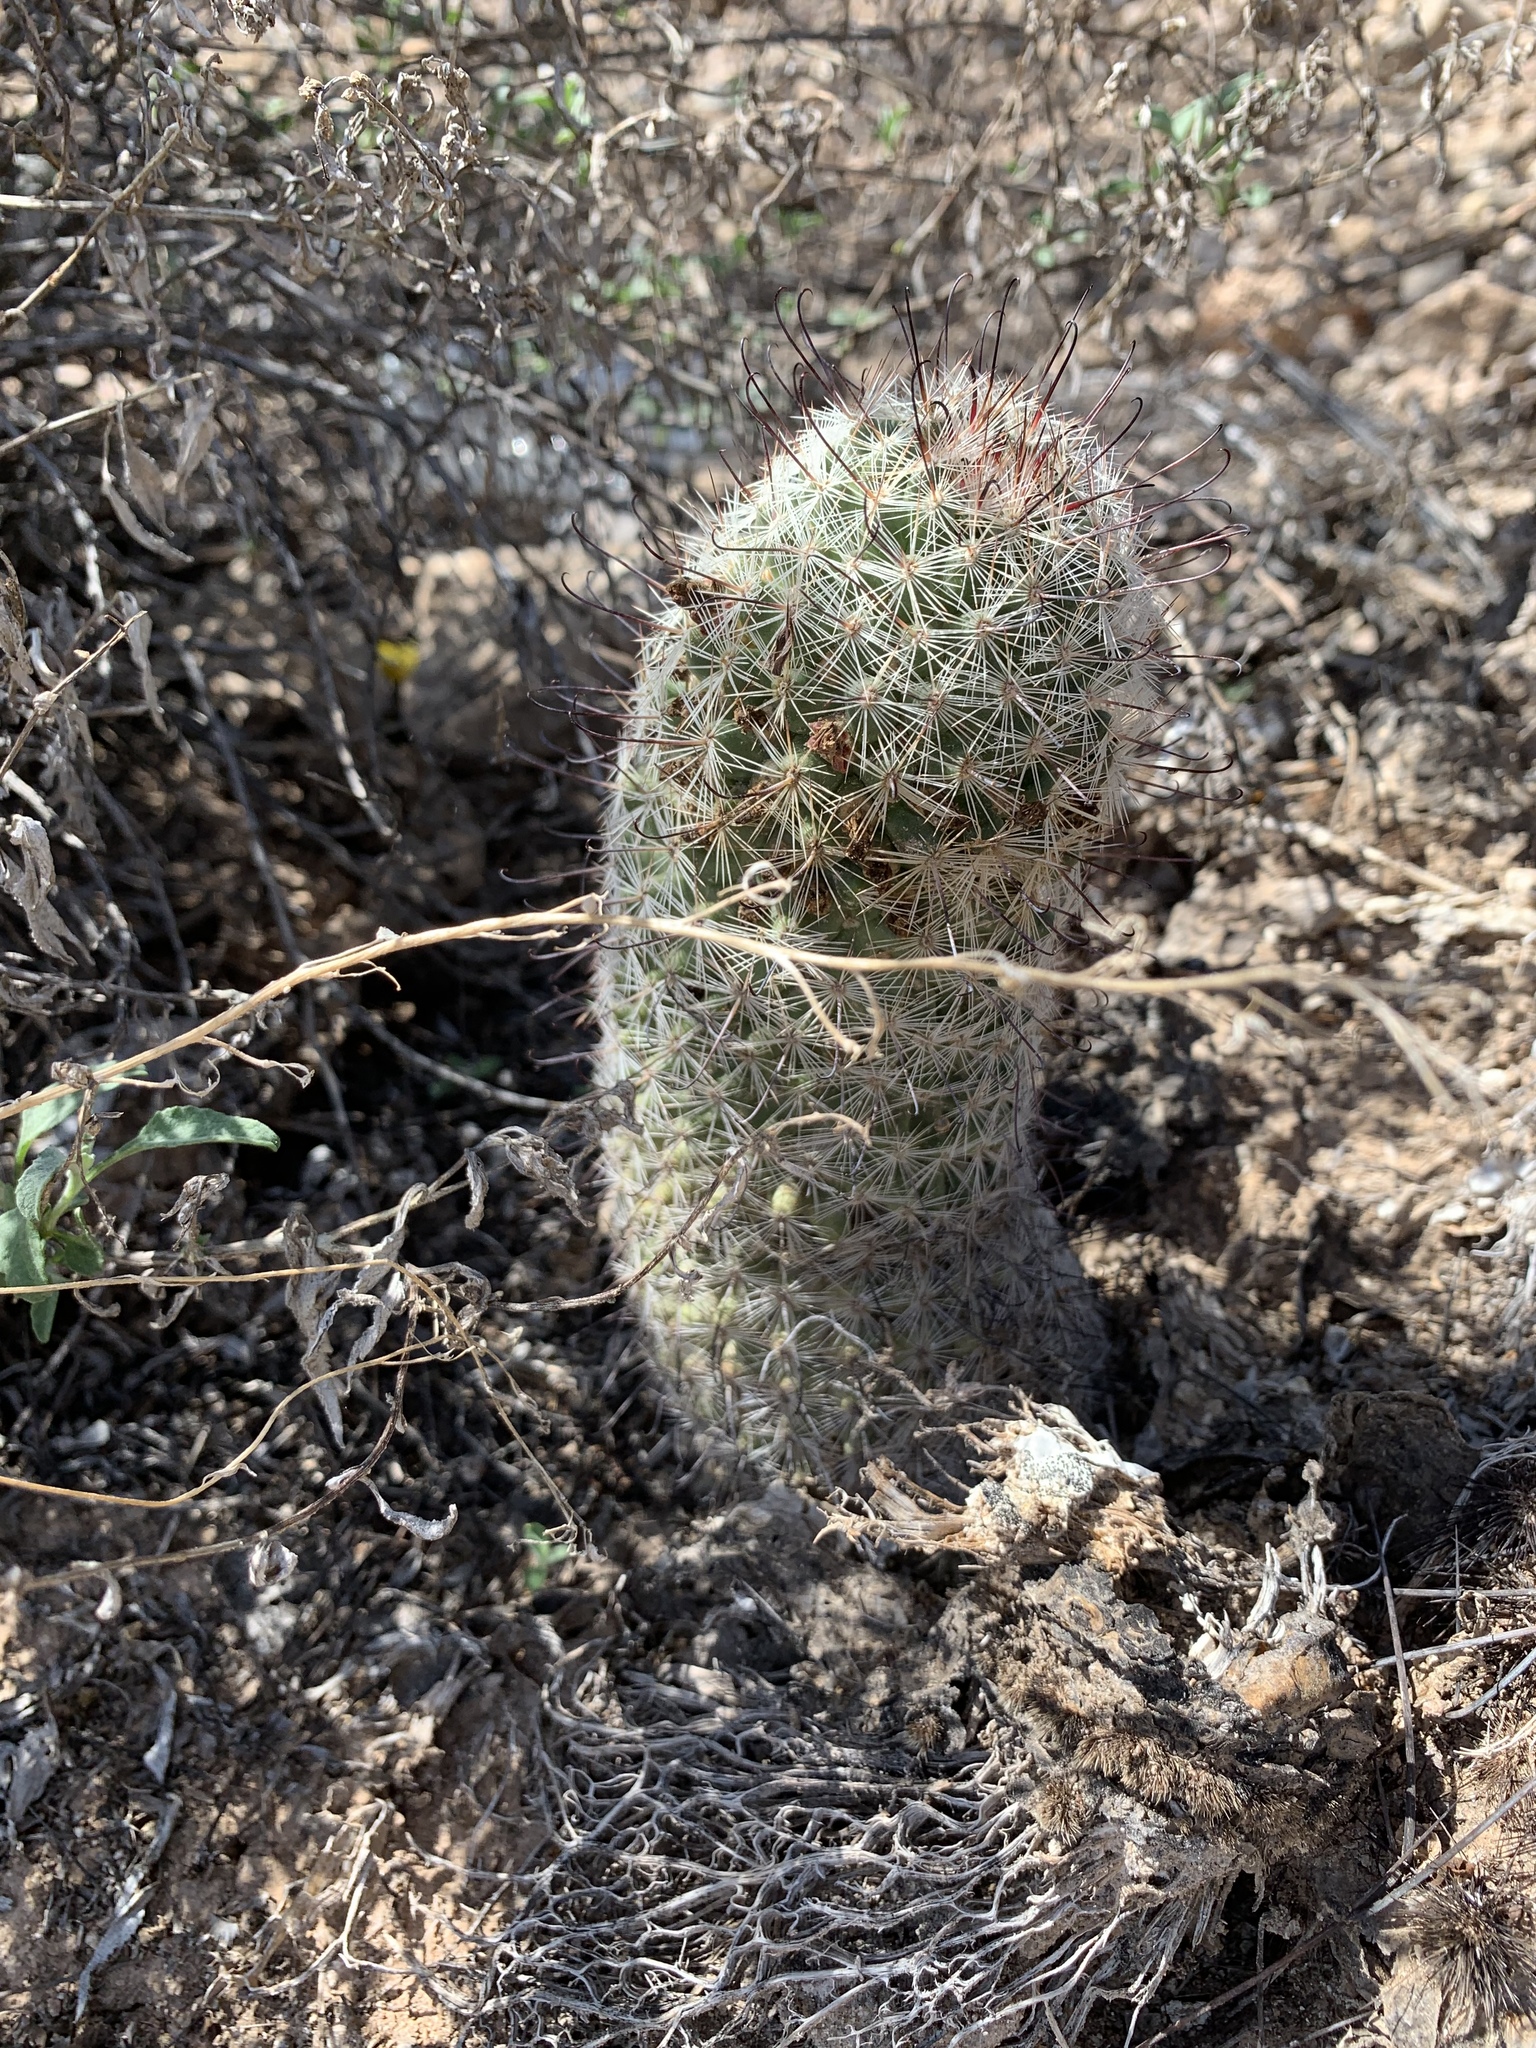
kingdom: Plantae
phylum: Tracheophyta
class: Magnoliopsida
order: Caryophyllales
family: Cactaceae
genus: Cochemiea
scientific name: Cochemiea grahamii
